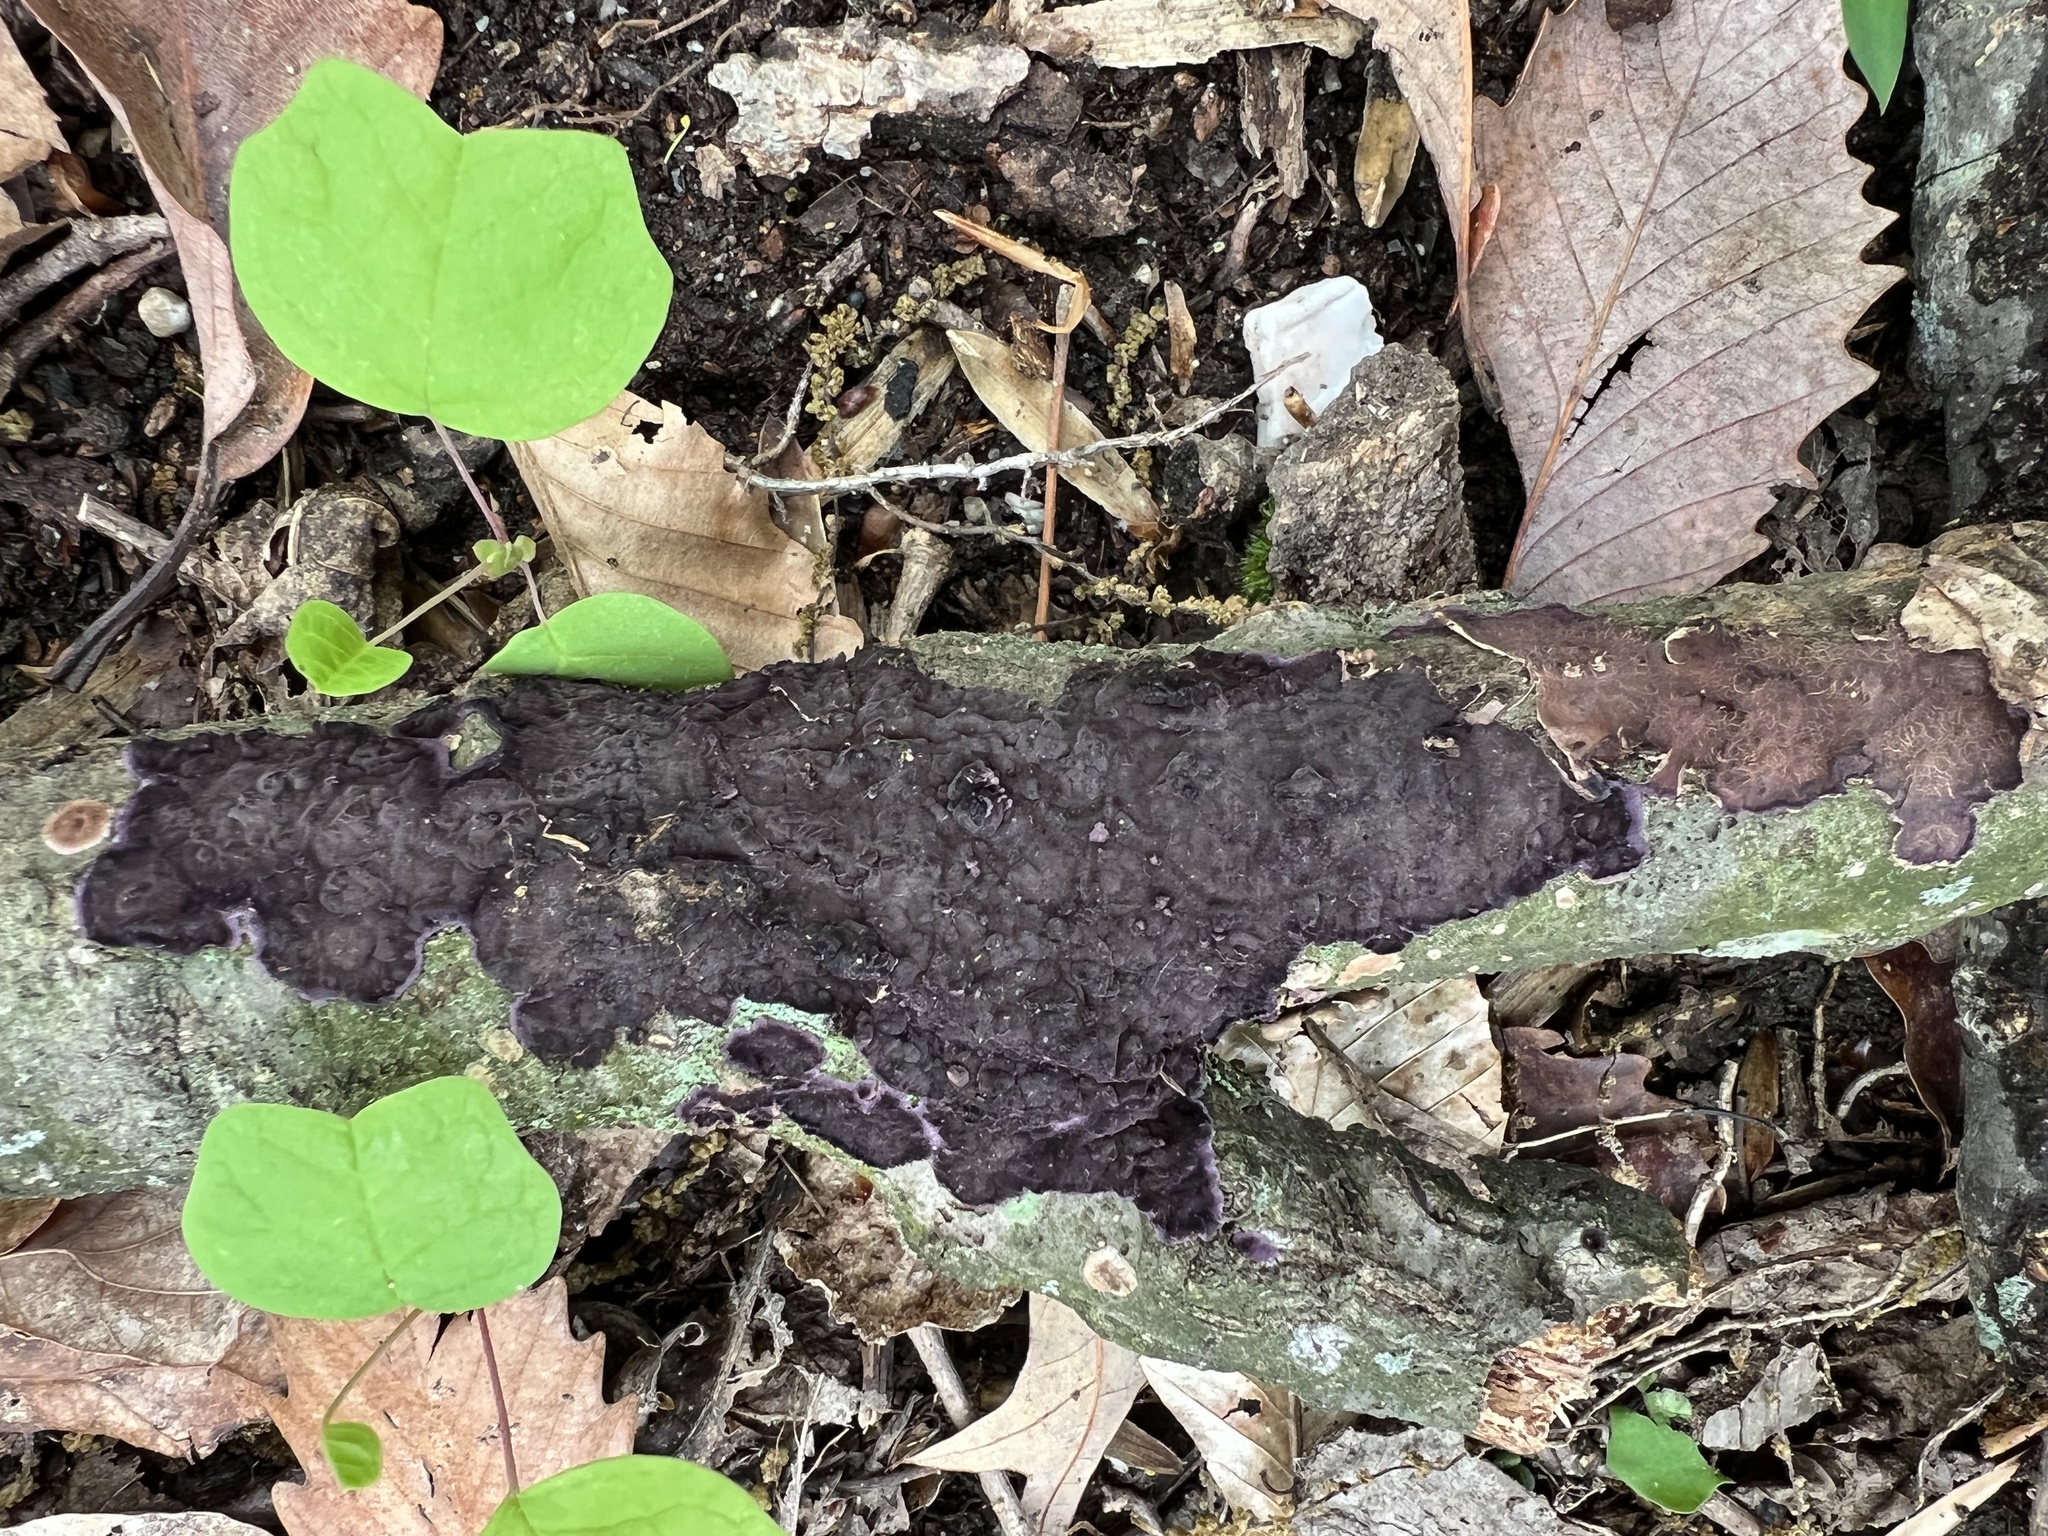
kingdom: Fungi
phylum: Basidiomycota
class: Agaricomycetes
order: Polyporales
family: Phanerochaetaceae
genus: Phlebiopsis
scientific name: Phlebiopsis crassa
